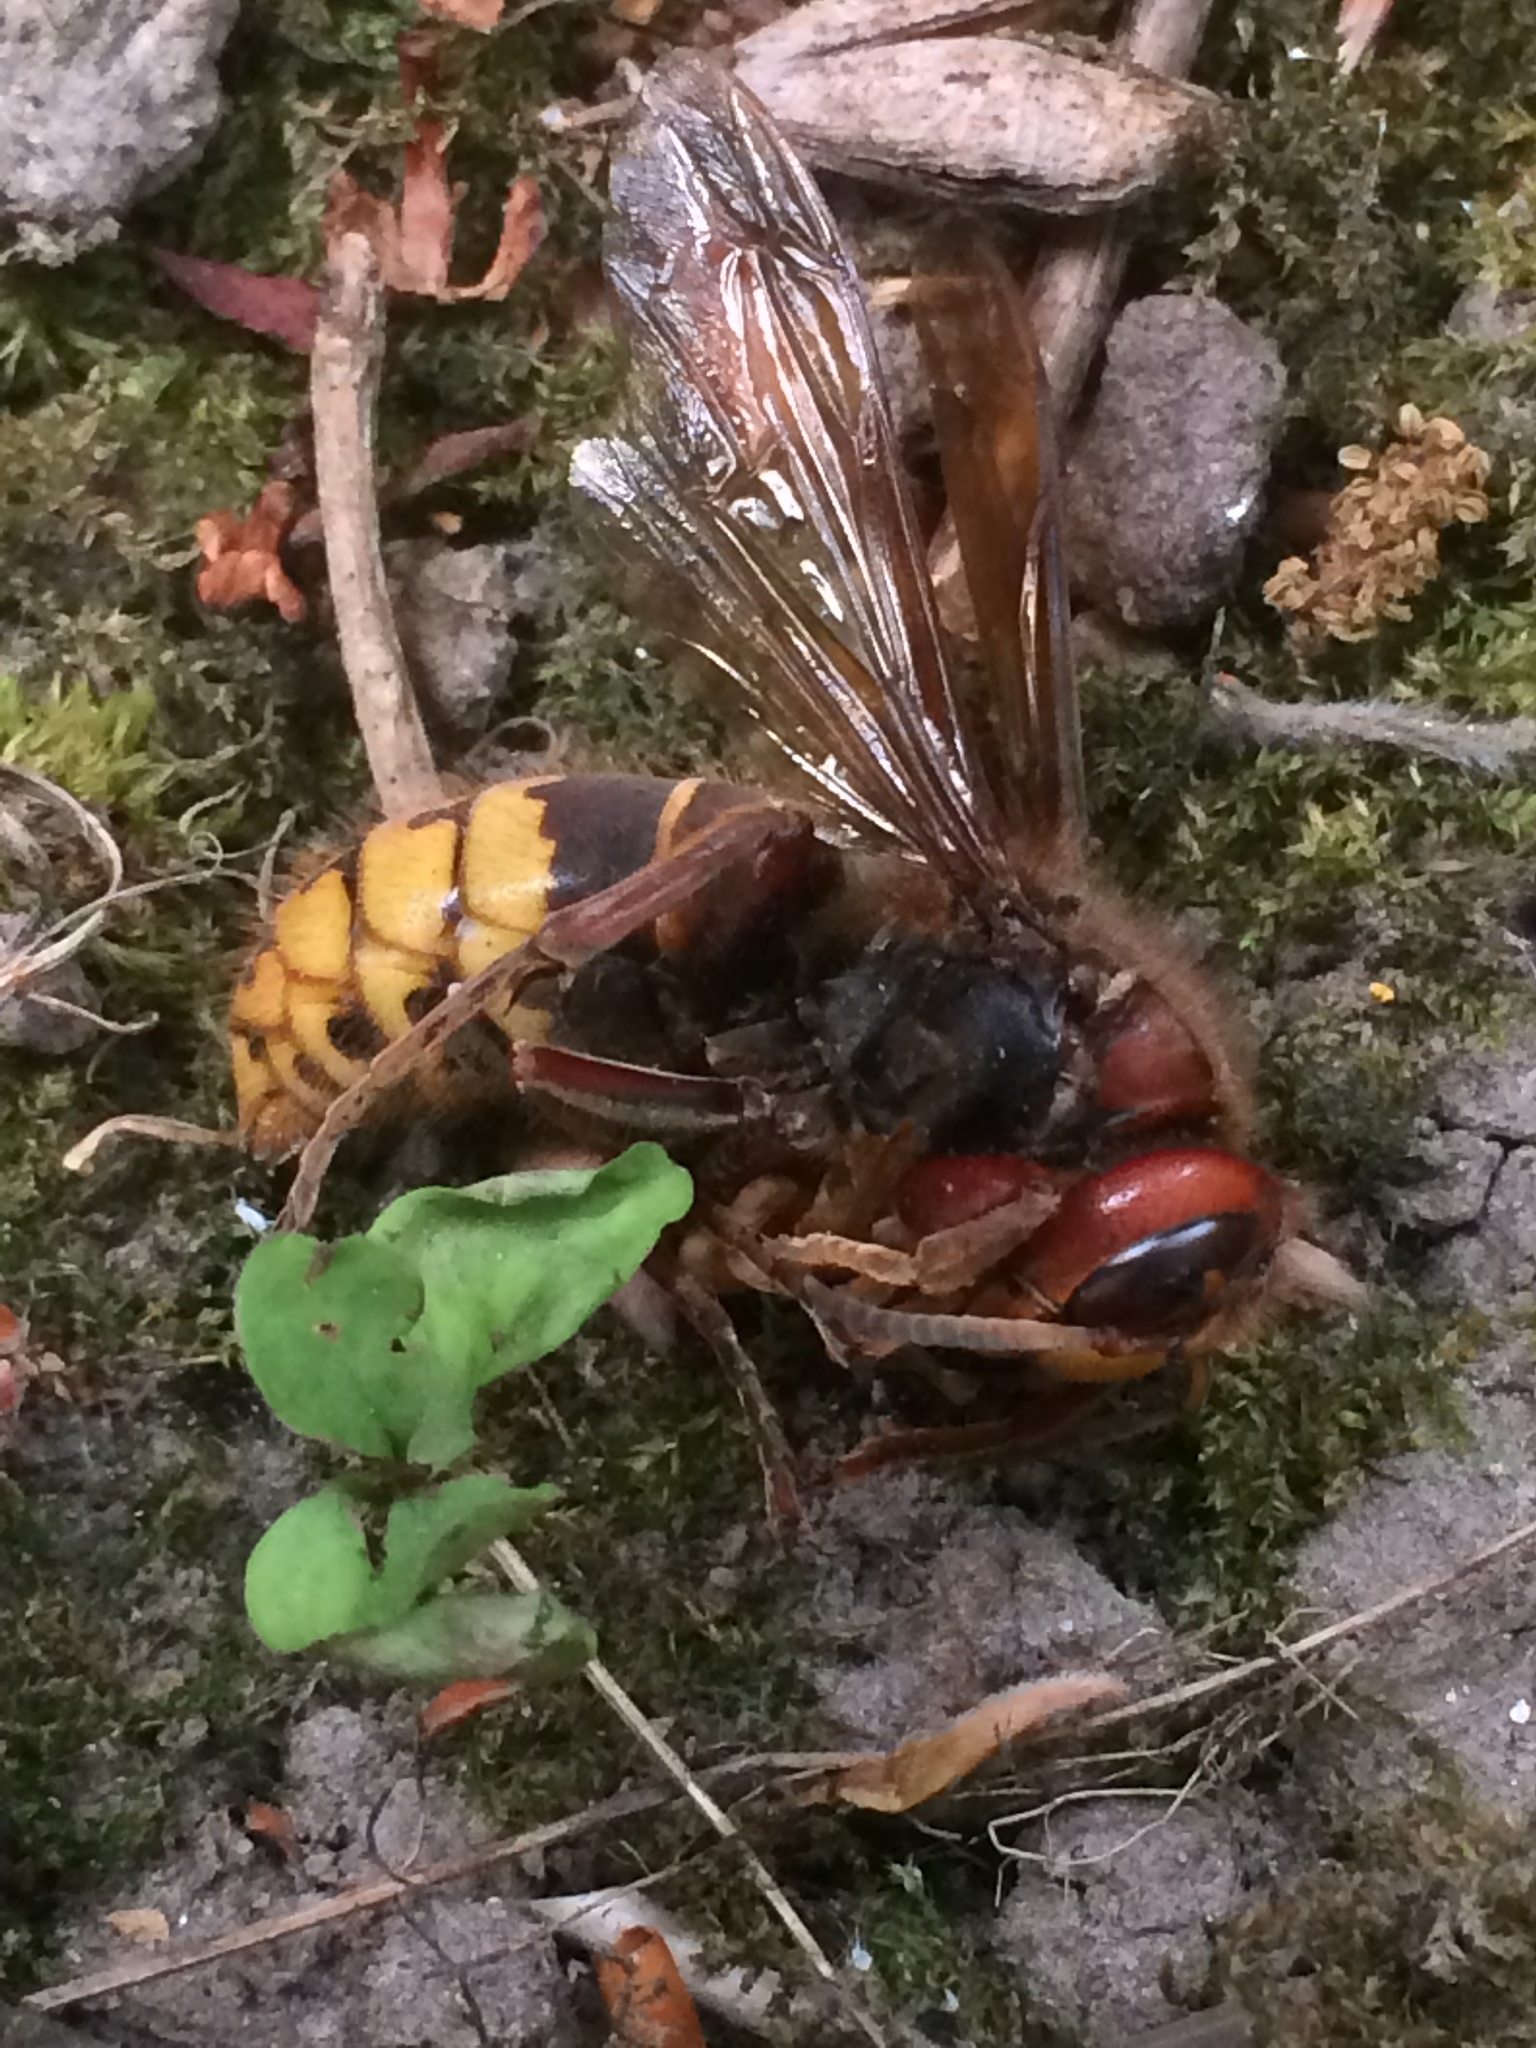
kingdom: Animalia
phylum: Arthropoda
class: Insecta
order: Hymenoptera
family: Vespidae
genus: Vespa
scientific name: Vespa crabro
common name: Hornet
